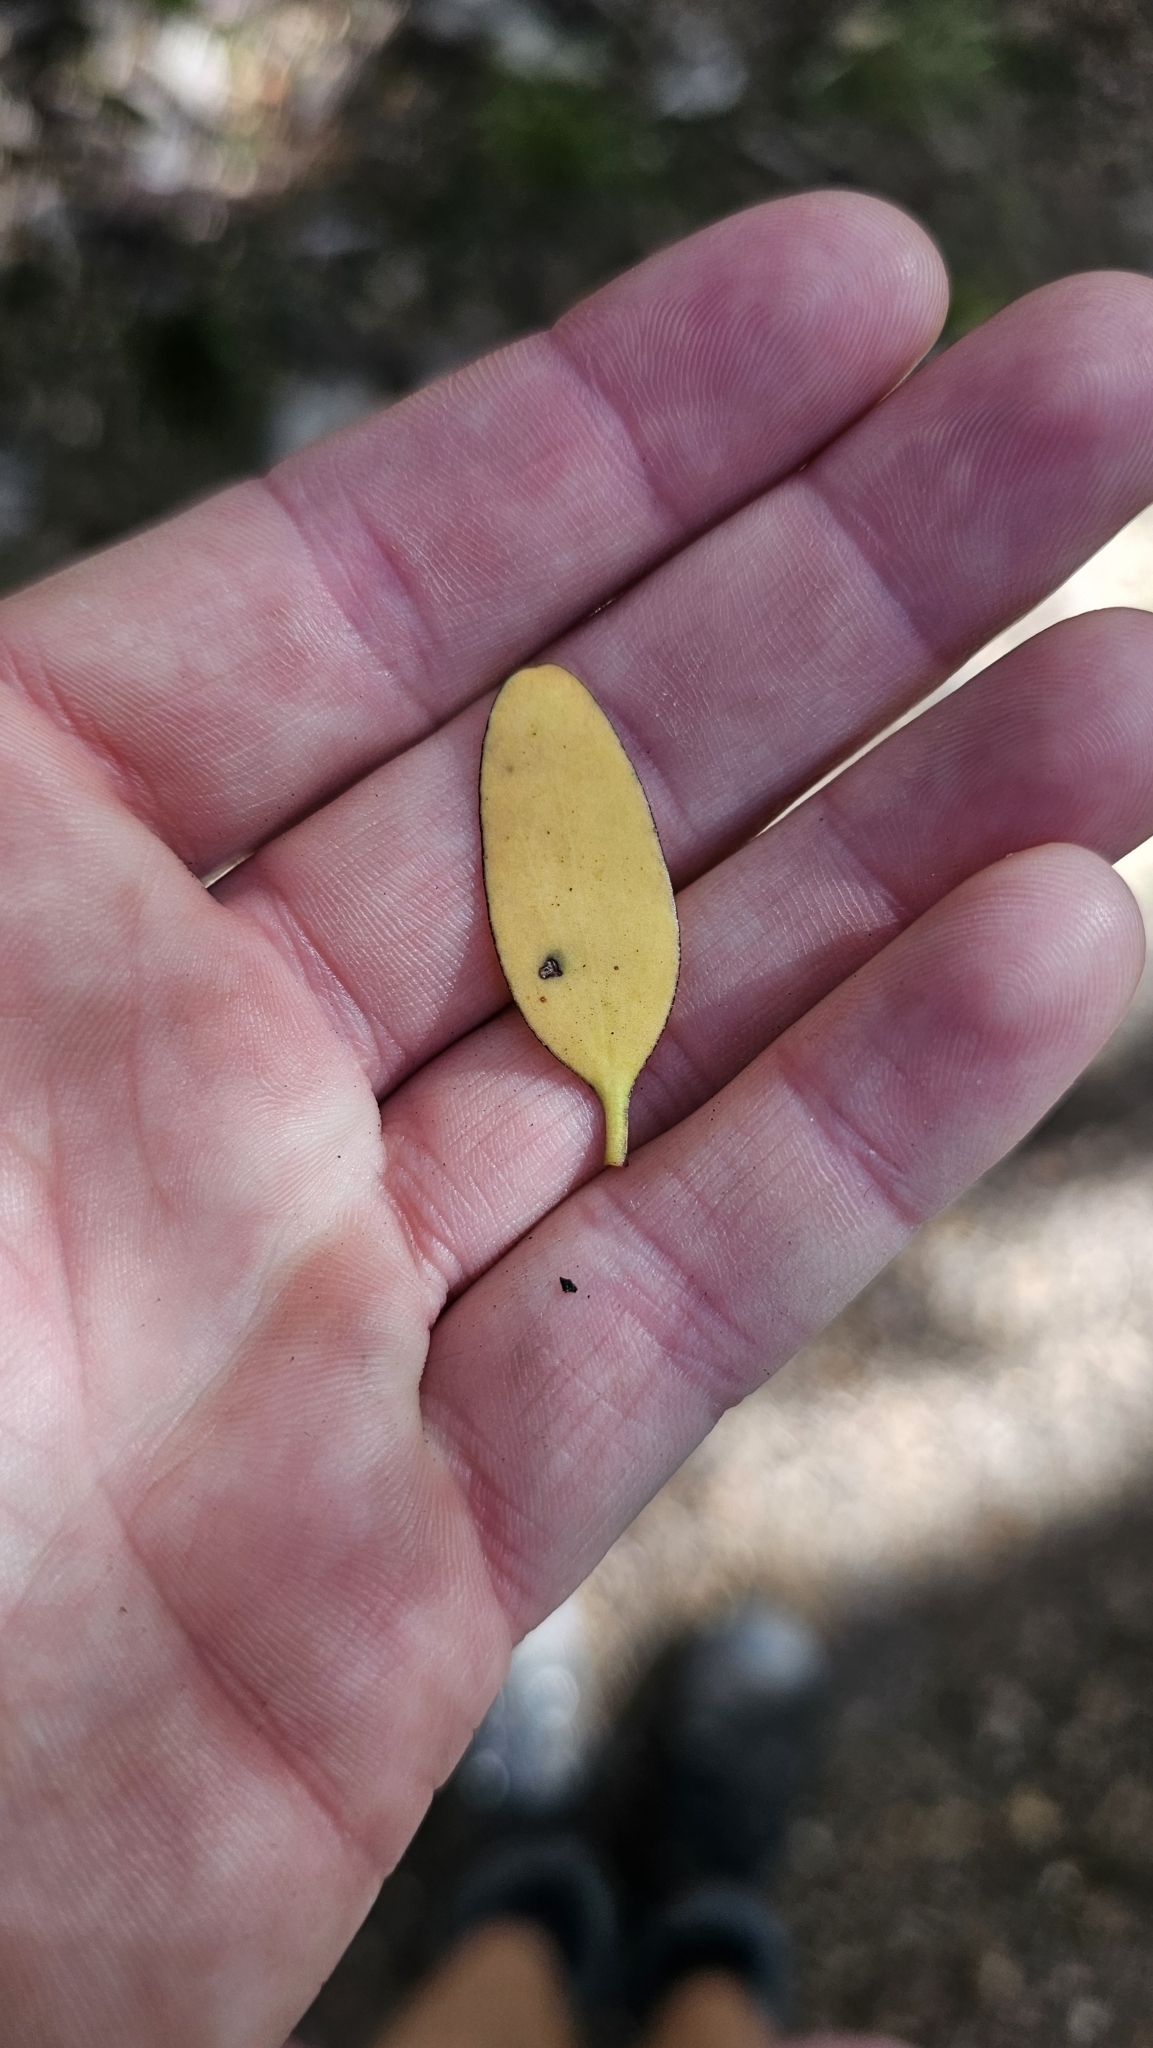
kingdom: Plantae
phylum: Tracheophyta
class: Magnoliopsida
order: Santalales
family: Loranthaceae
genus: Alepis
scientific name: Alepis flavida
